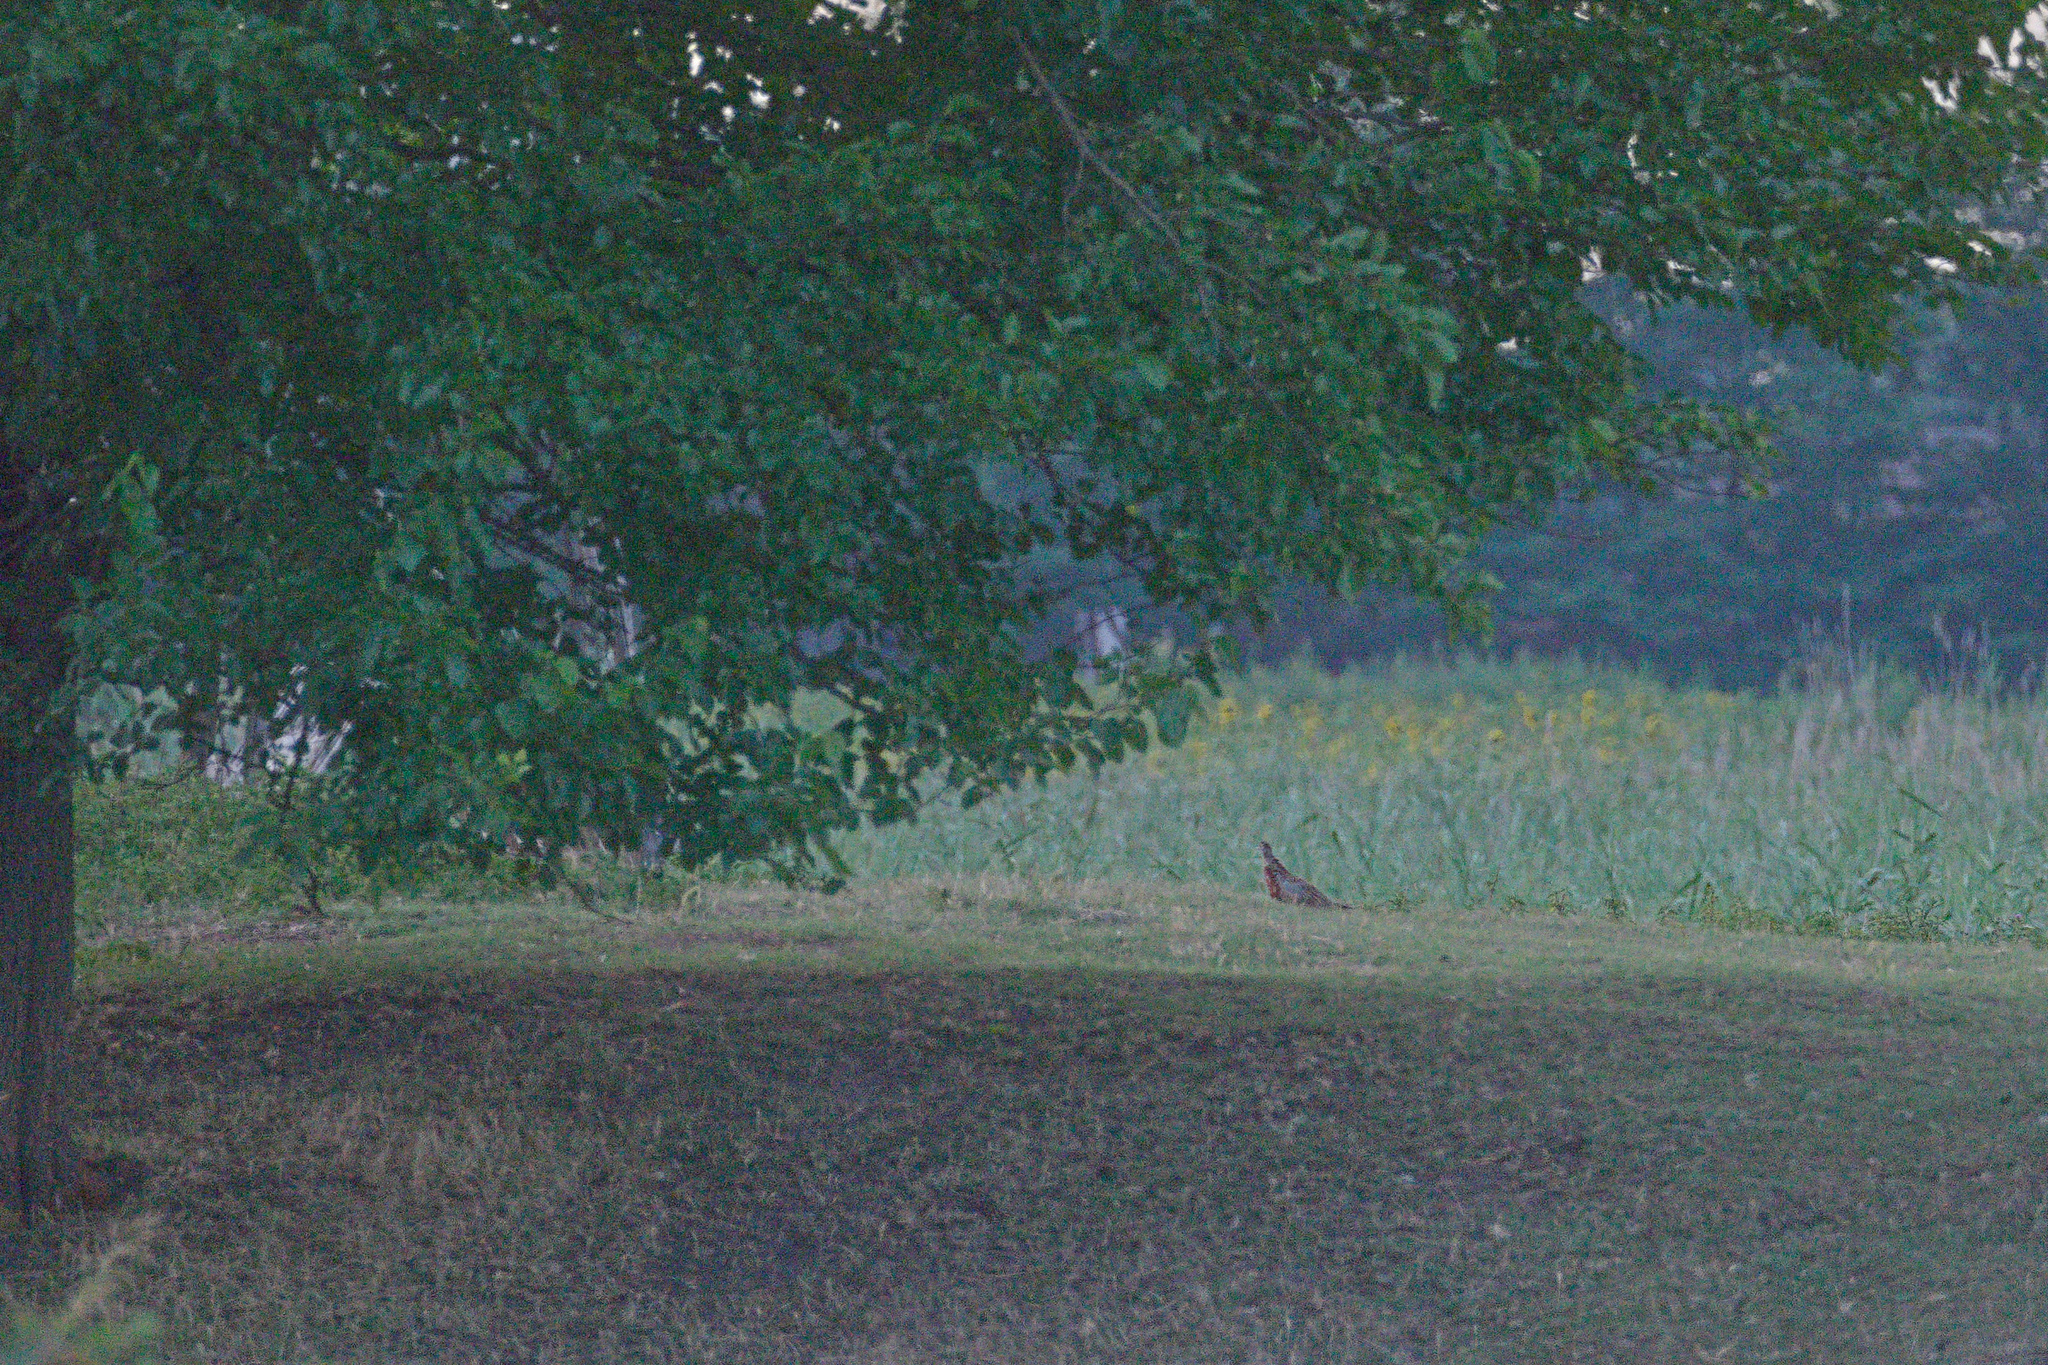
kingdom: Animalia
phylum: Chordata
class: Aves
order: Galliformes
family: Phasianidae
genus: Phasianus
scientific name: Phasianus colchicus
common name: Common pheasant
